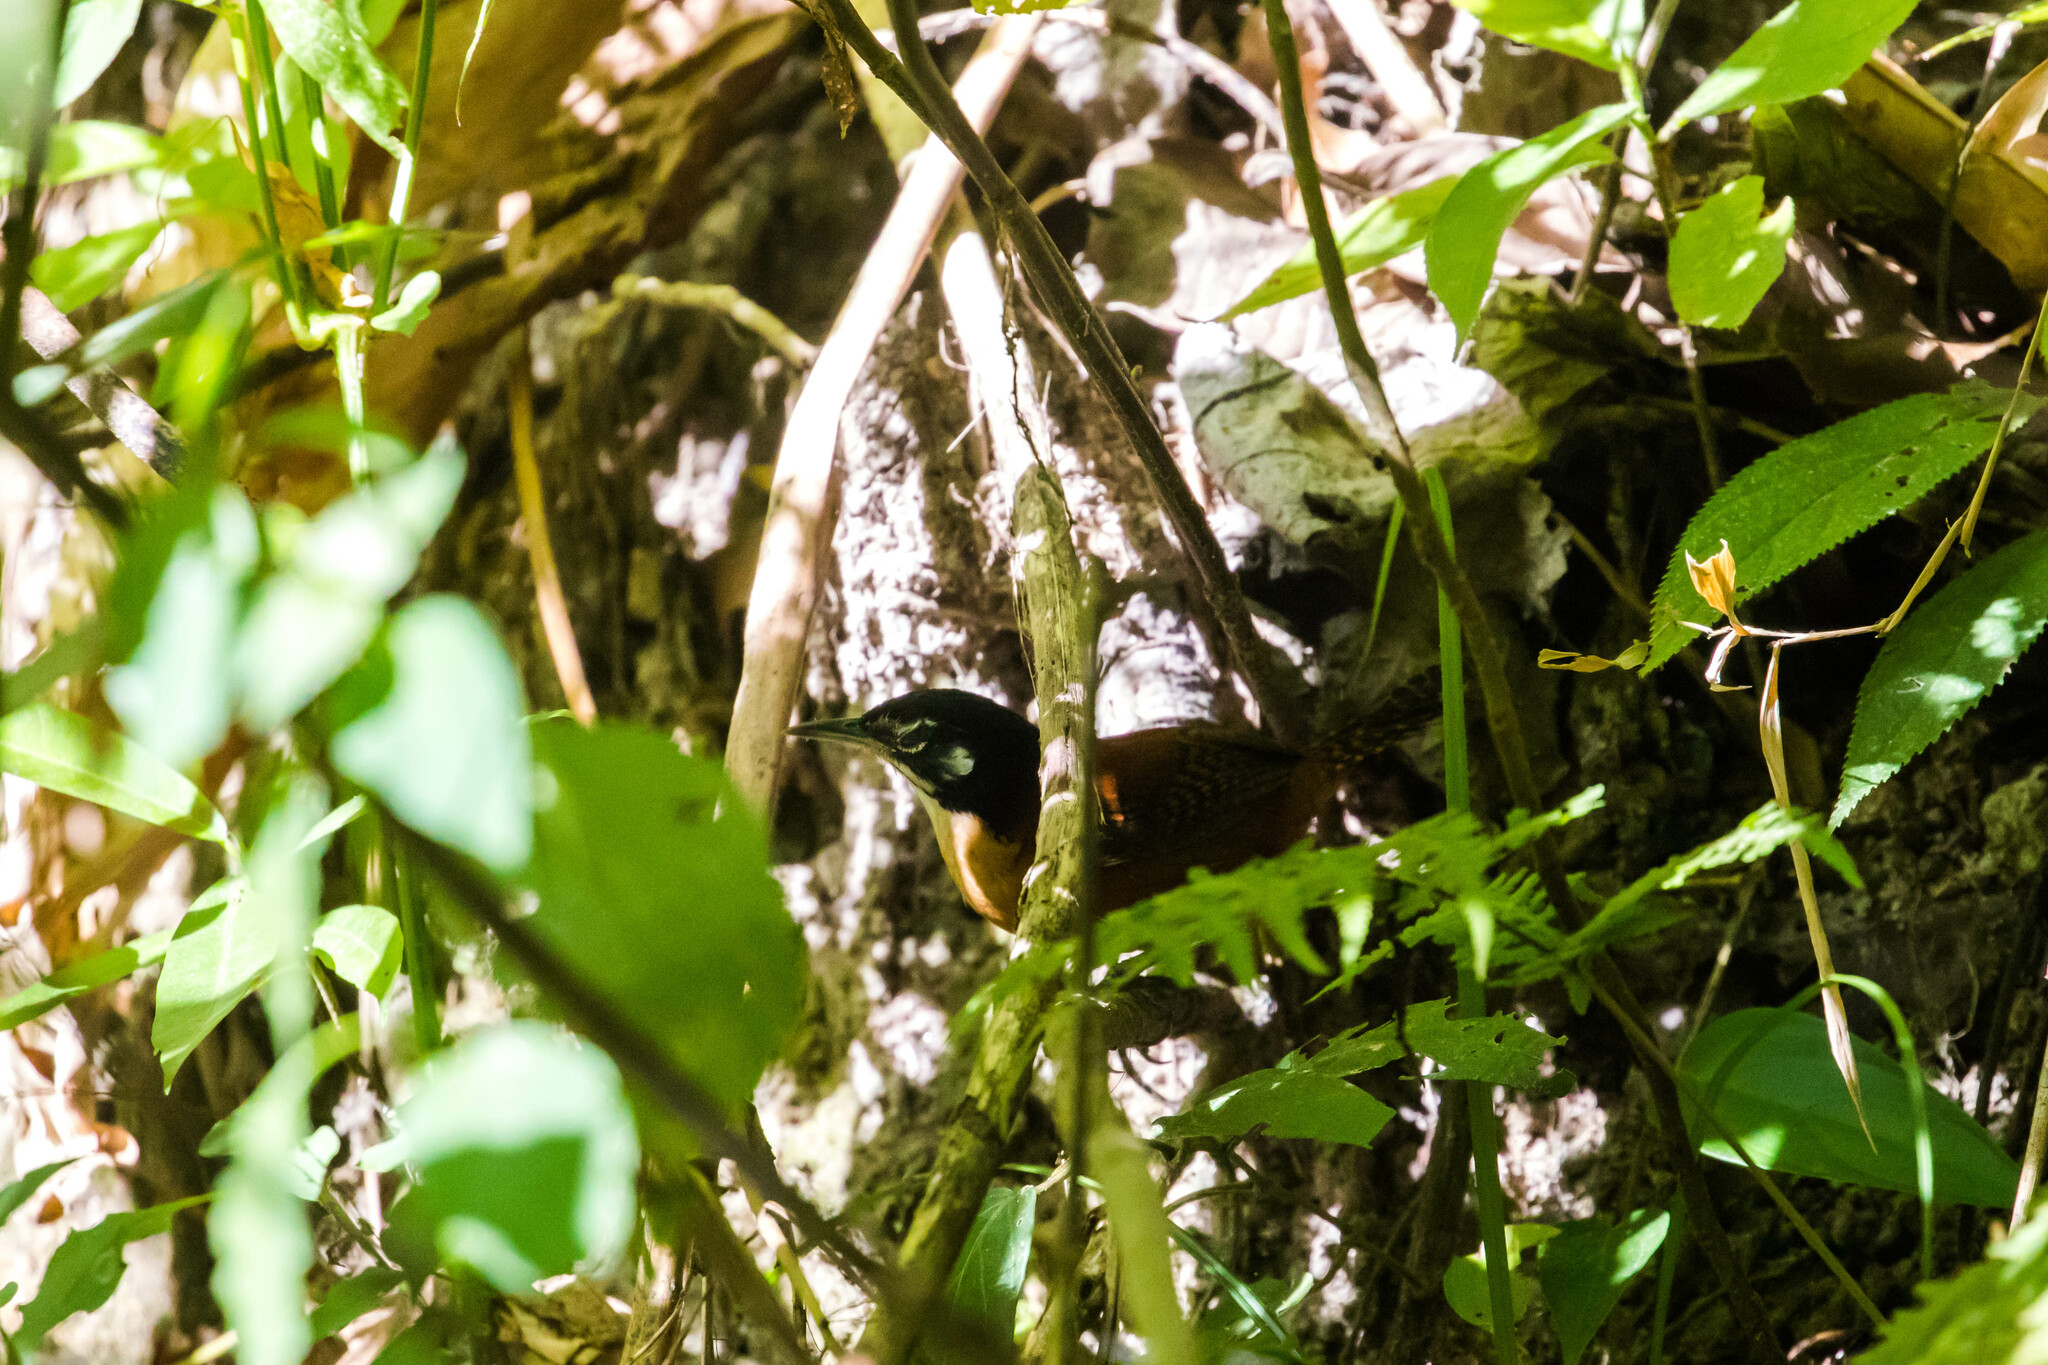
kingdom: Animalia
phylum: Chordata
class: Aves
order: Passeriformes
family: Troglodytidae
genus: Cantorchilus
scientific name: Cantorchilus nigricapillus
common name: Bay wren
